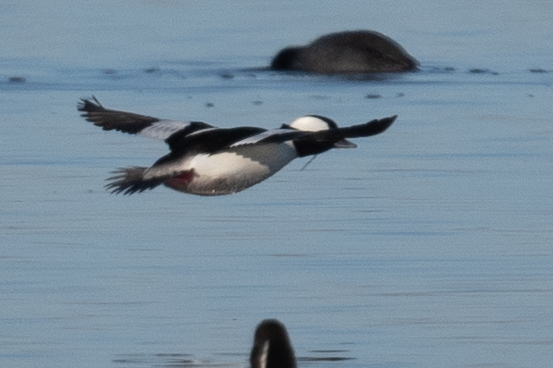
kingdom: Animalia
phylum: Chordata
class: Aves
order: Anseriformes
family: Anatidae
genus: Bucephala
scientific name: Bucephala albeola
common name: Bufflehead
